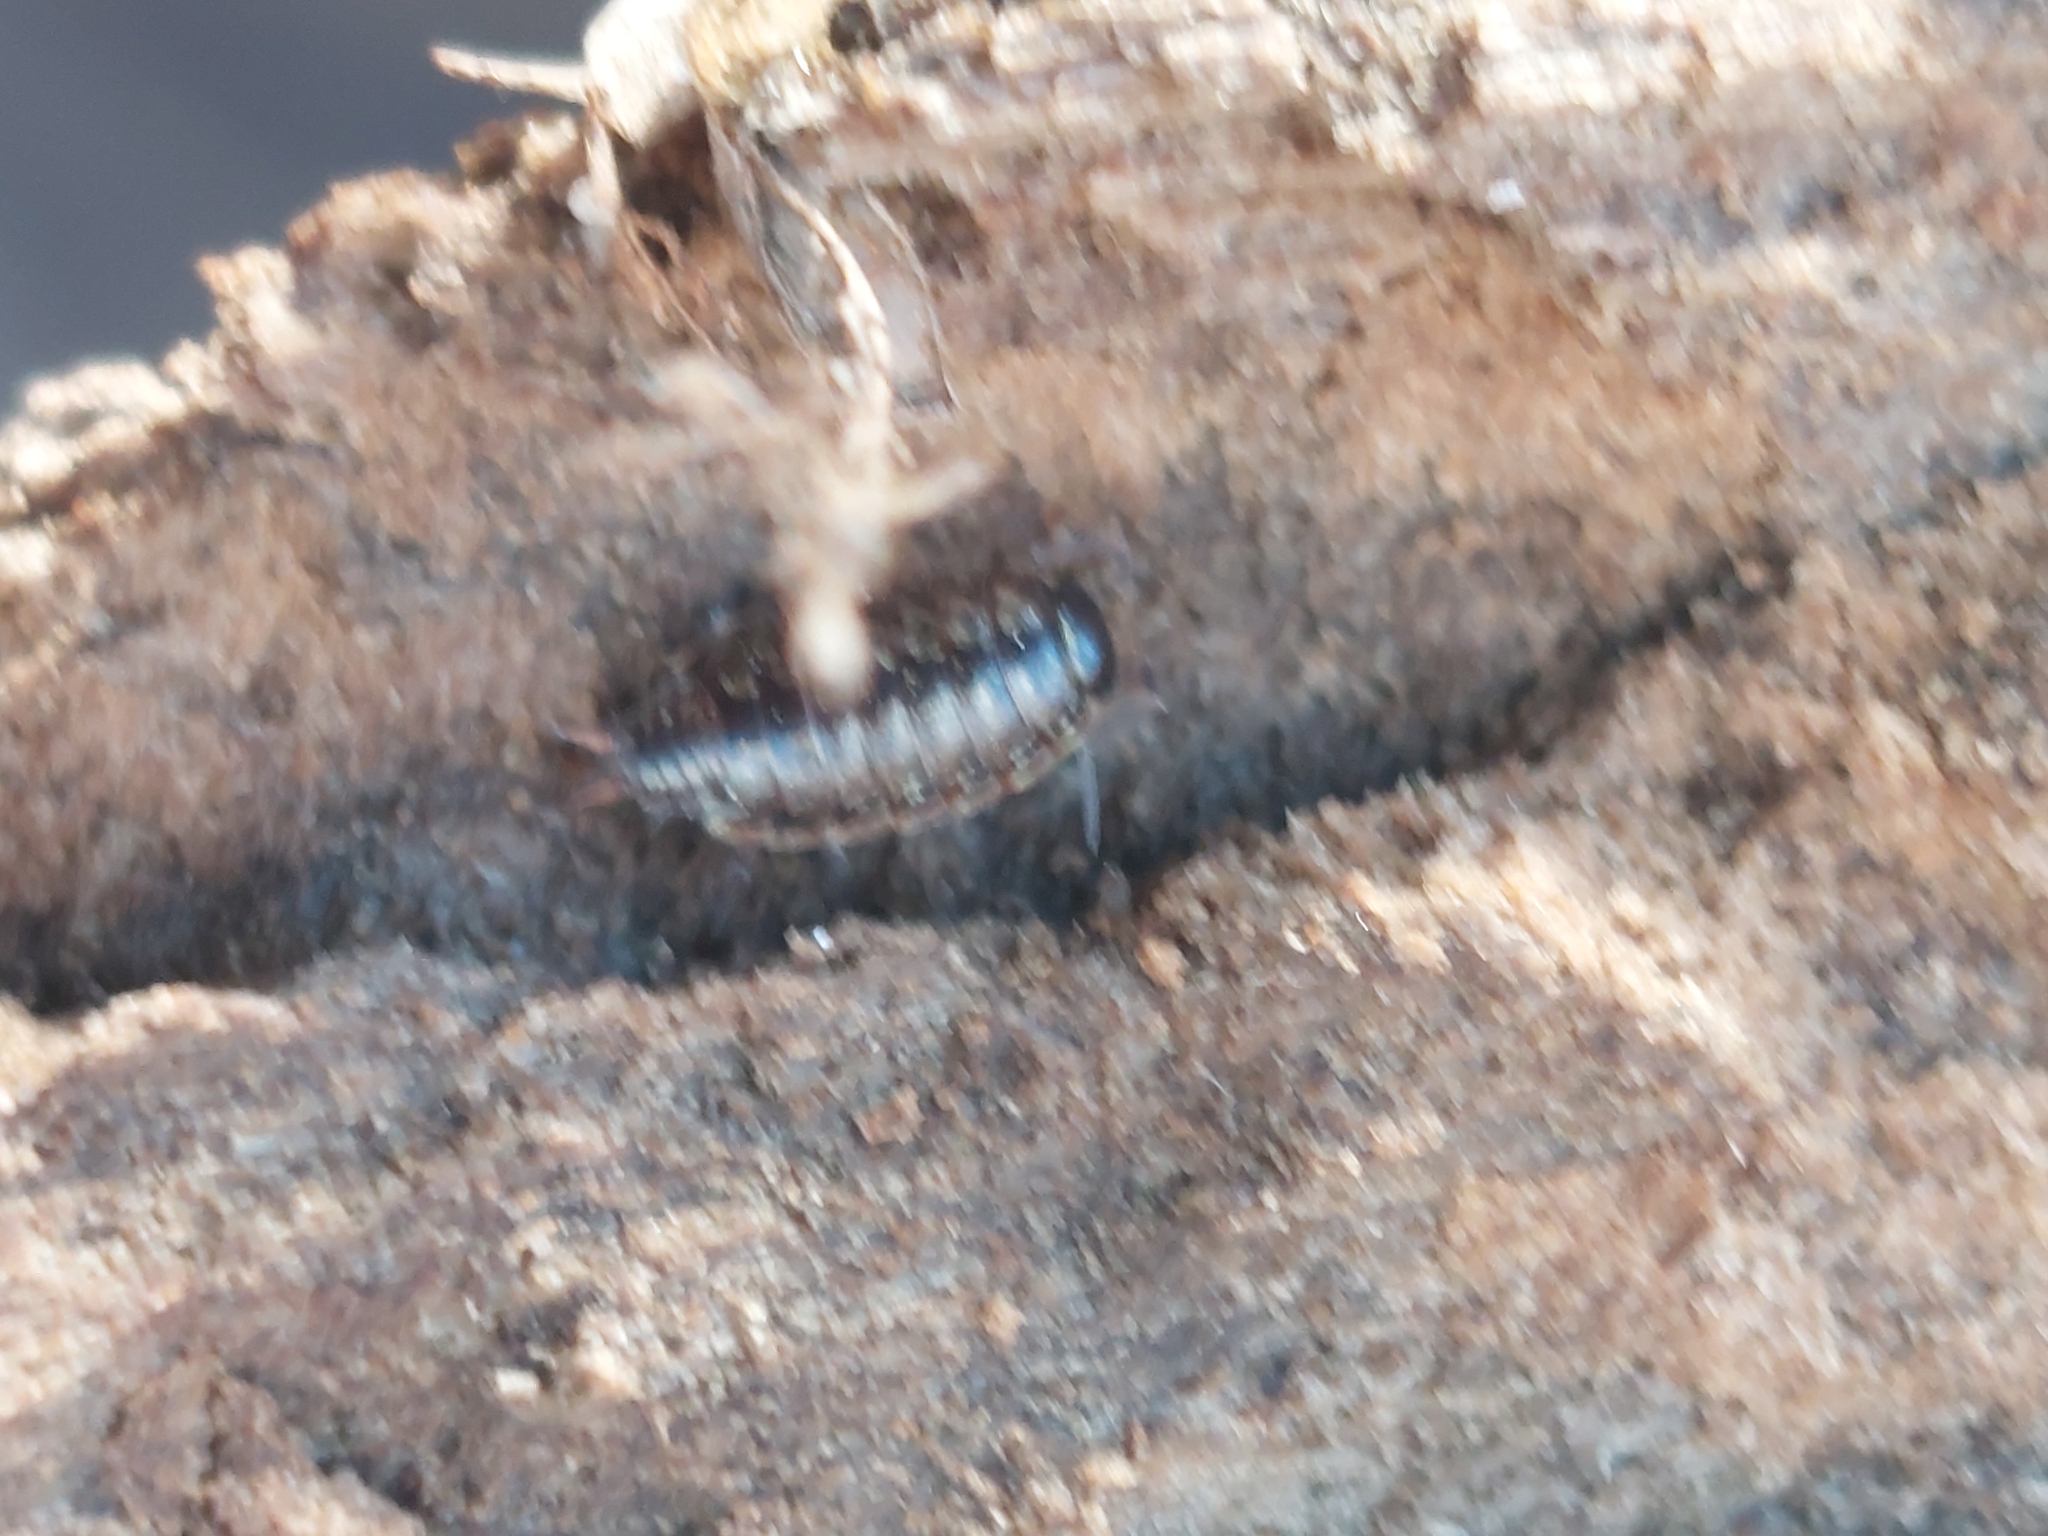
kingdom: Animalia
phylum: Arthropoda
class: Malacostraca
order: Isopoda
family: Philosciidae
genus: Philoscia
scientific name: Philoscia muscorum
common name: Common striped woodlouse
